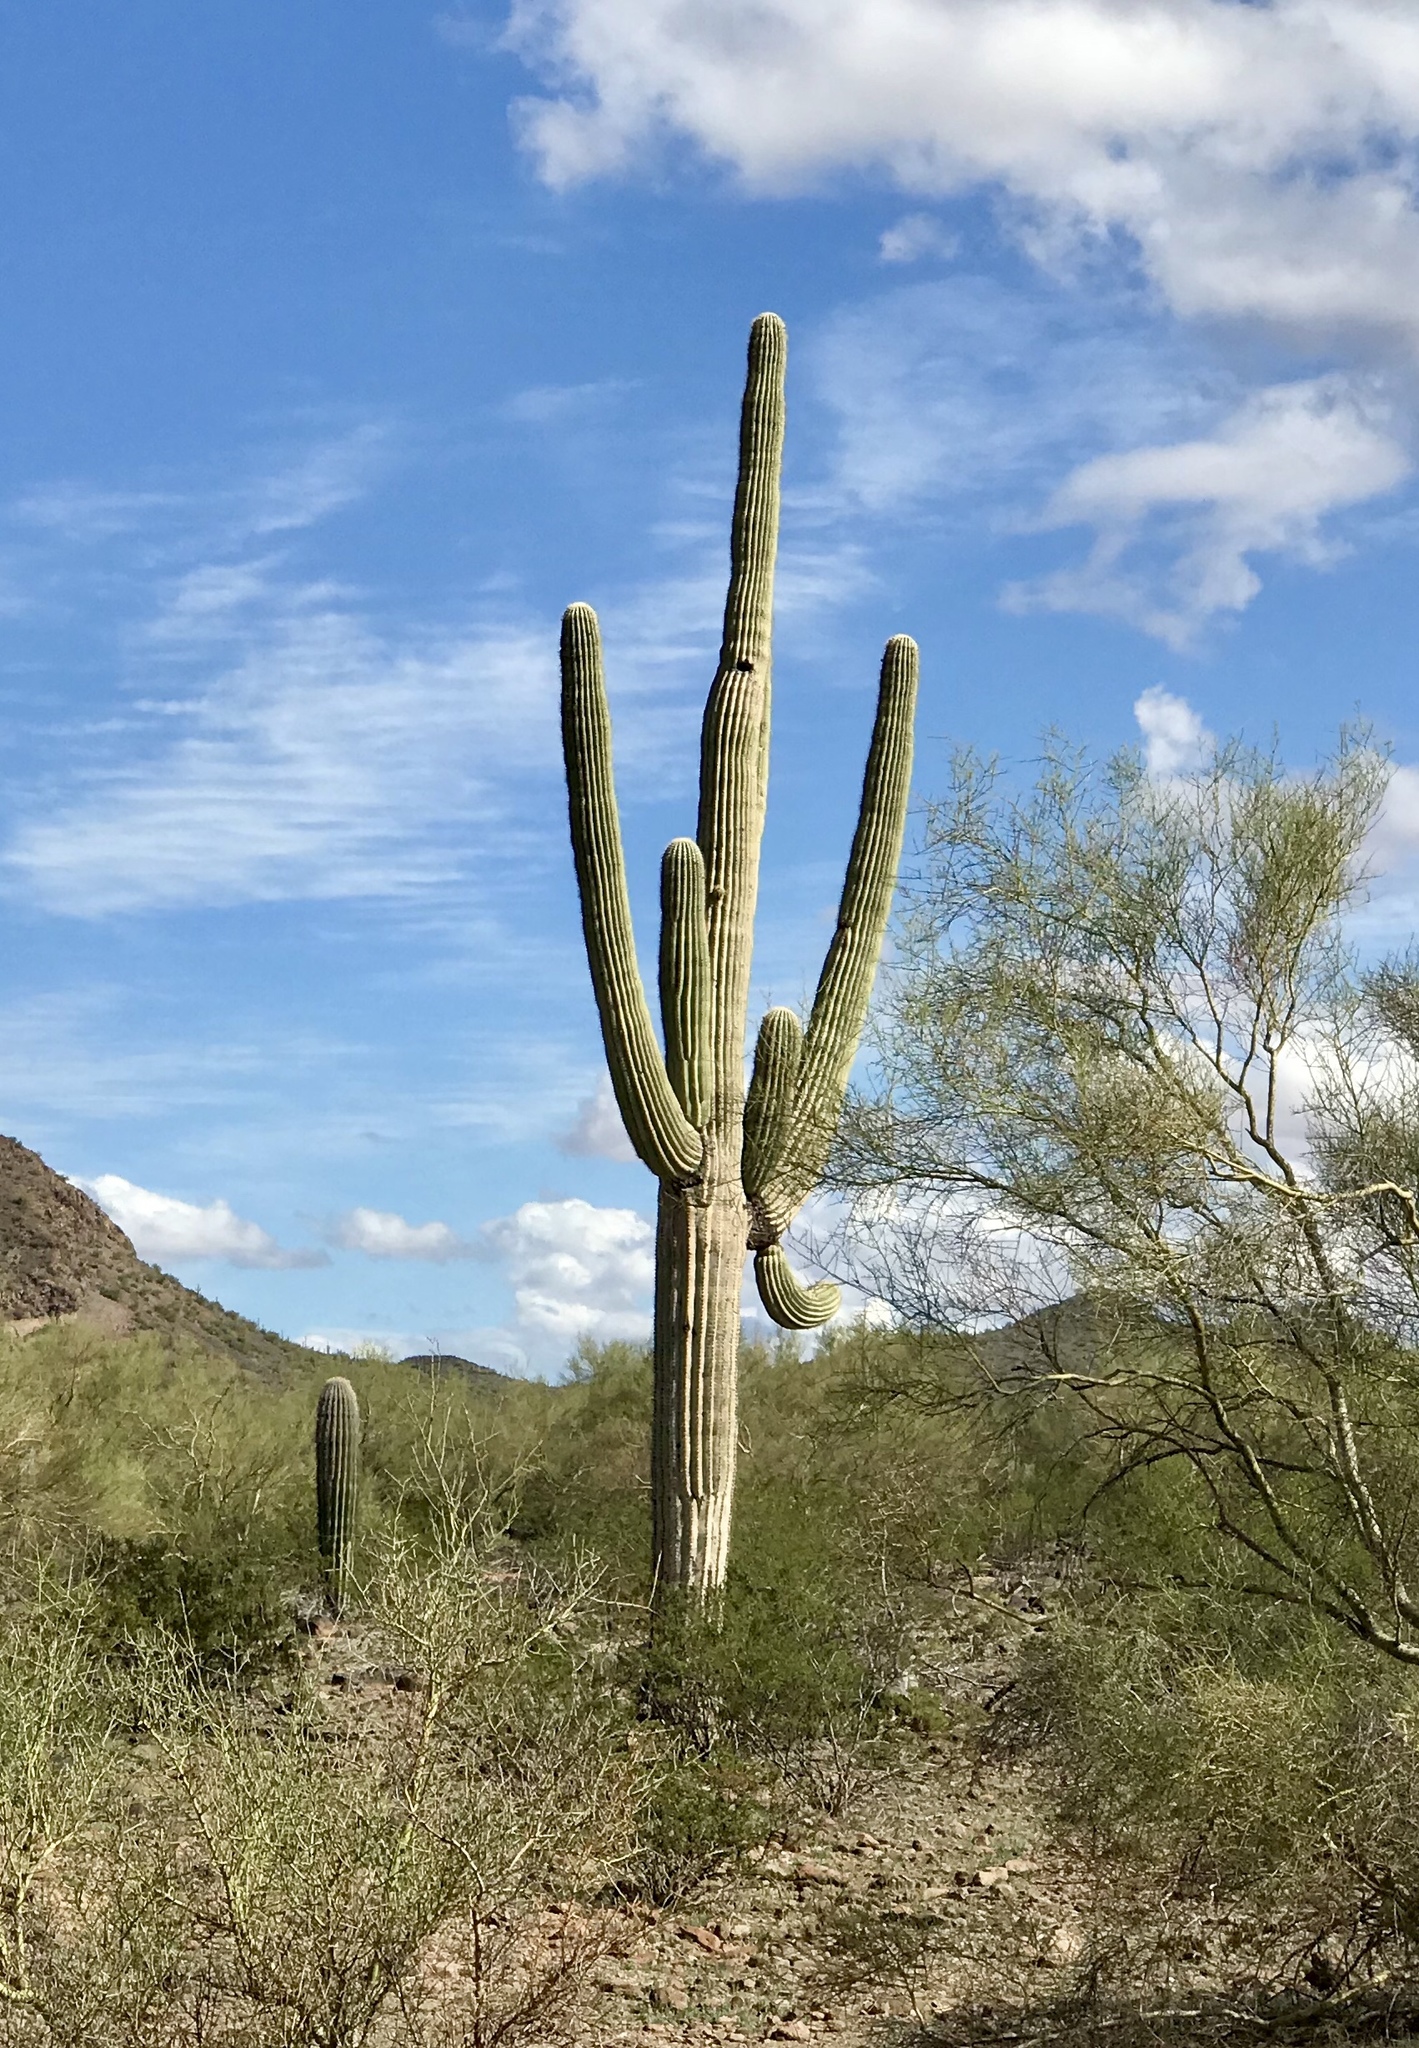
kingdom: Plantae
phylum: Tracheophyta
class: Magnoliopsida
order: Caryophyllales
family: Cactaceae
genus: Carnegiea
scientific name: Carnegiea gigantea
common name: Saguaro
